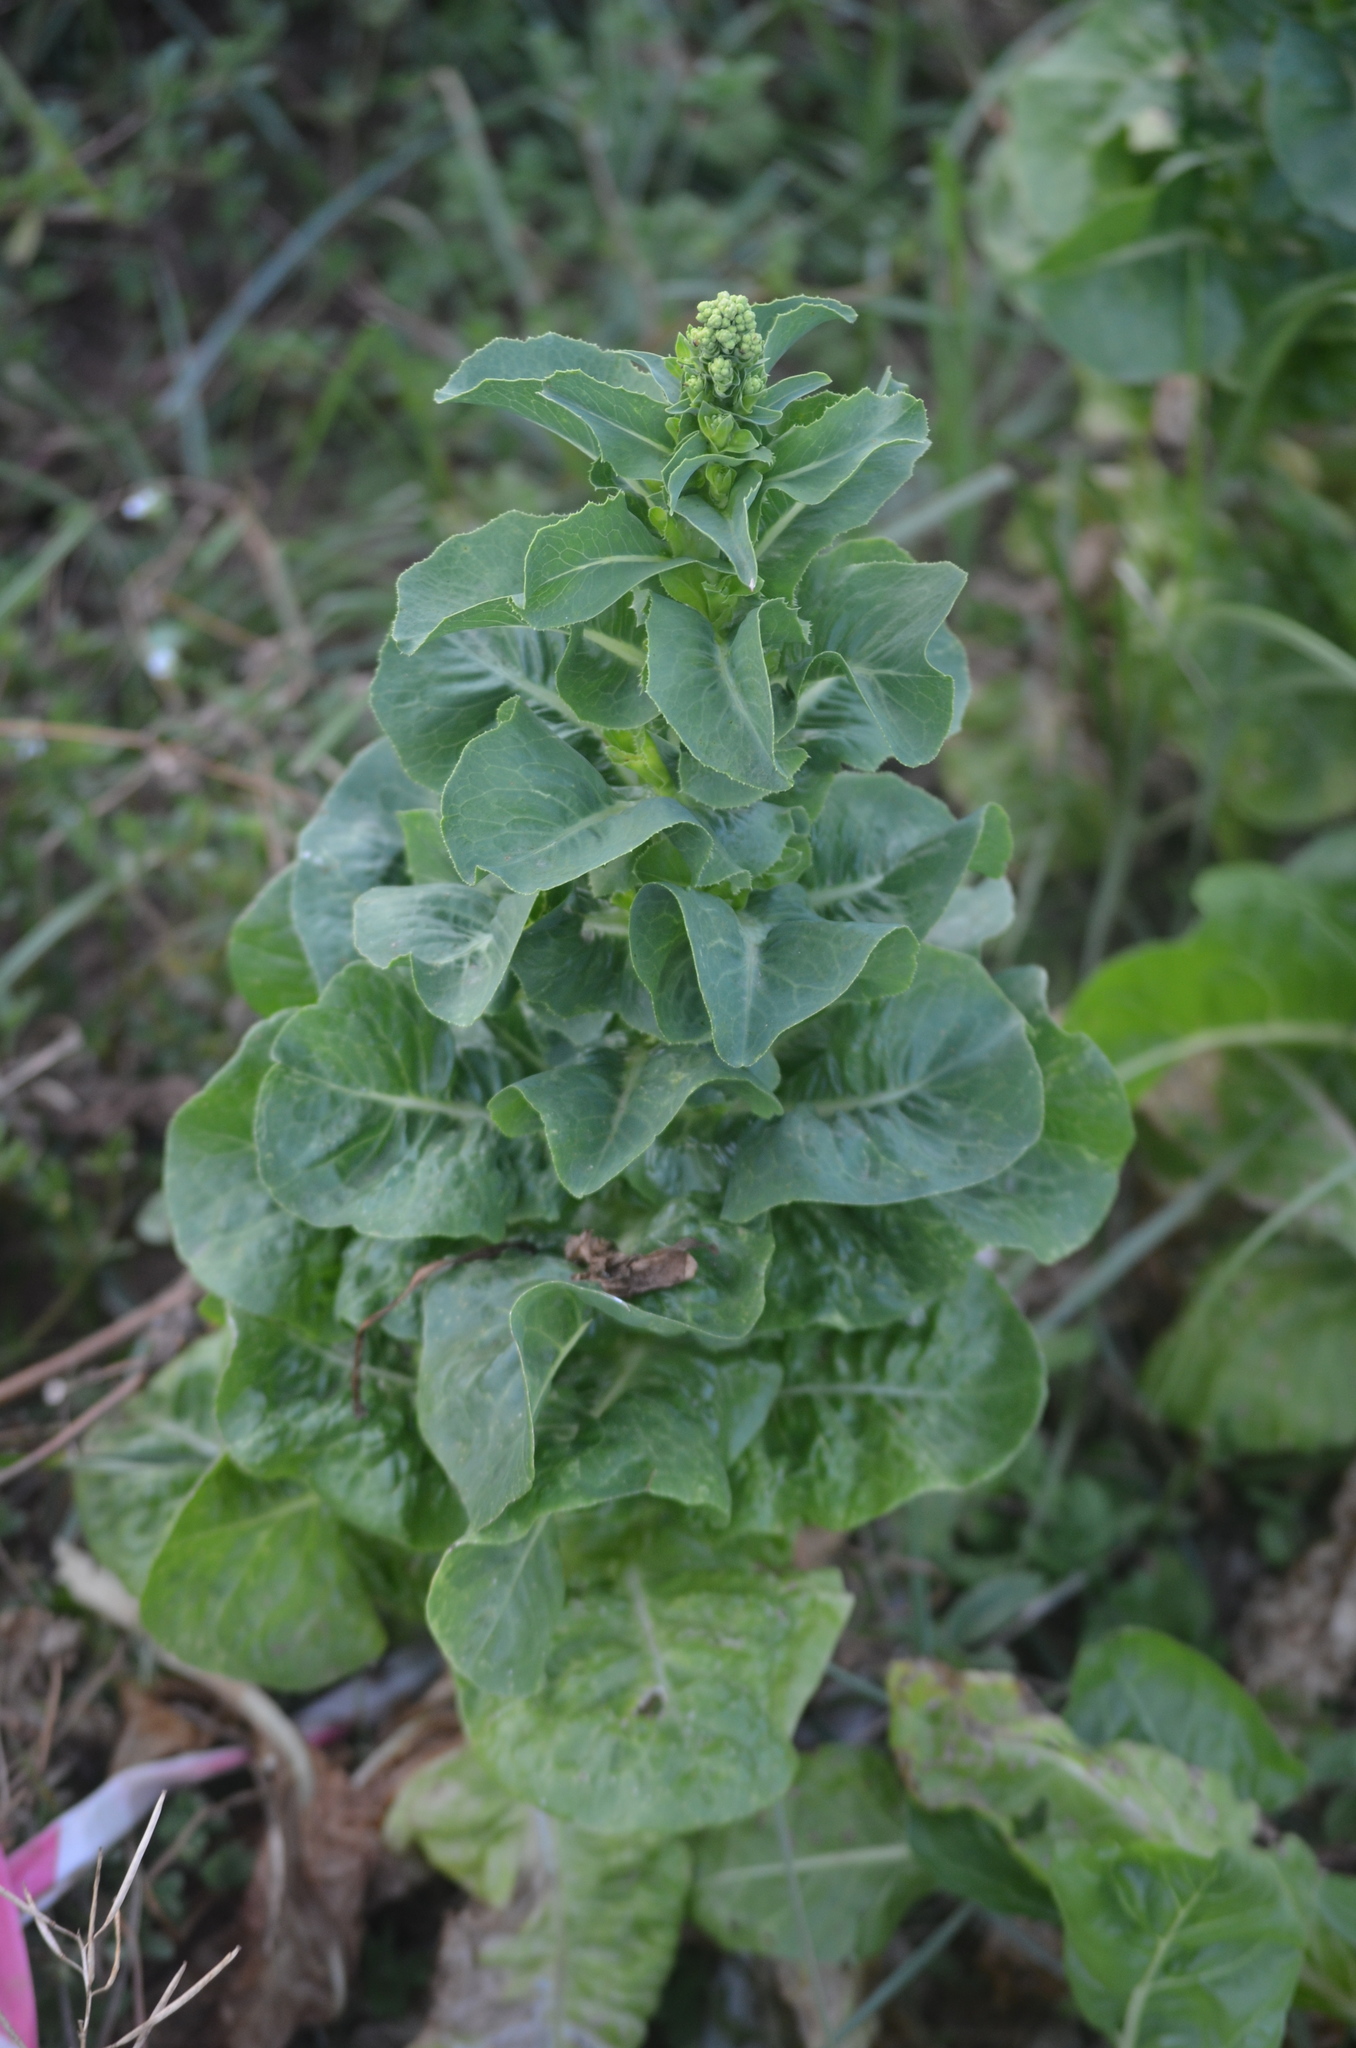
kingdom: Plantae
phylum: Tracheophyta
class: Magnoliopsida
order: Caryophyllales
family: Amaranthaceae
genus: Beta
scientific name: Beta vulgaris
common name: Beet
